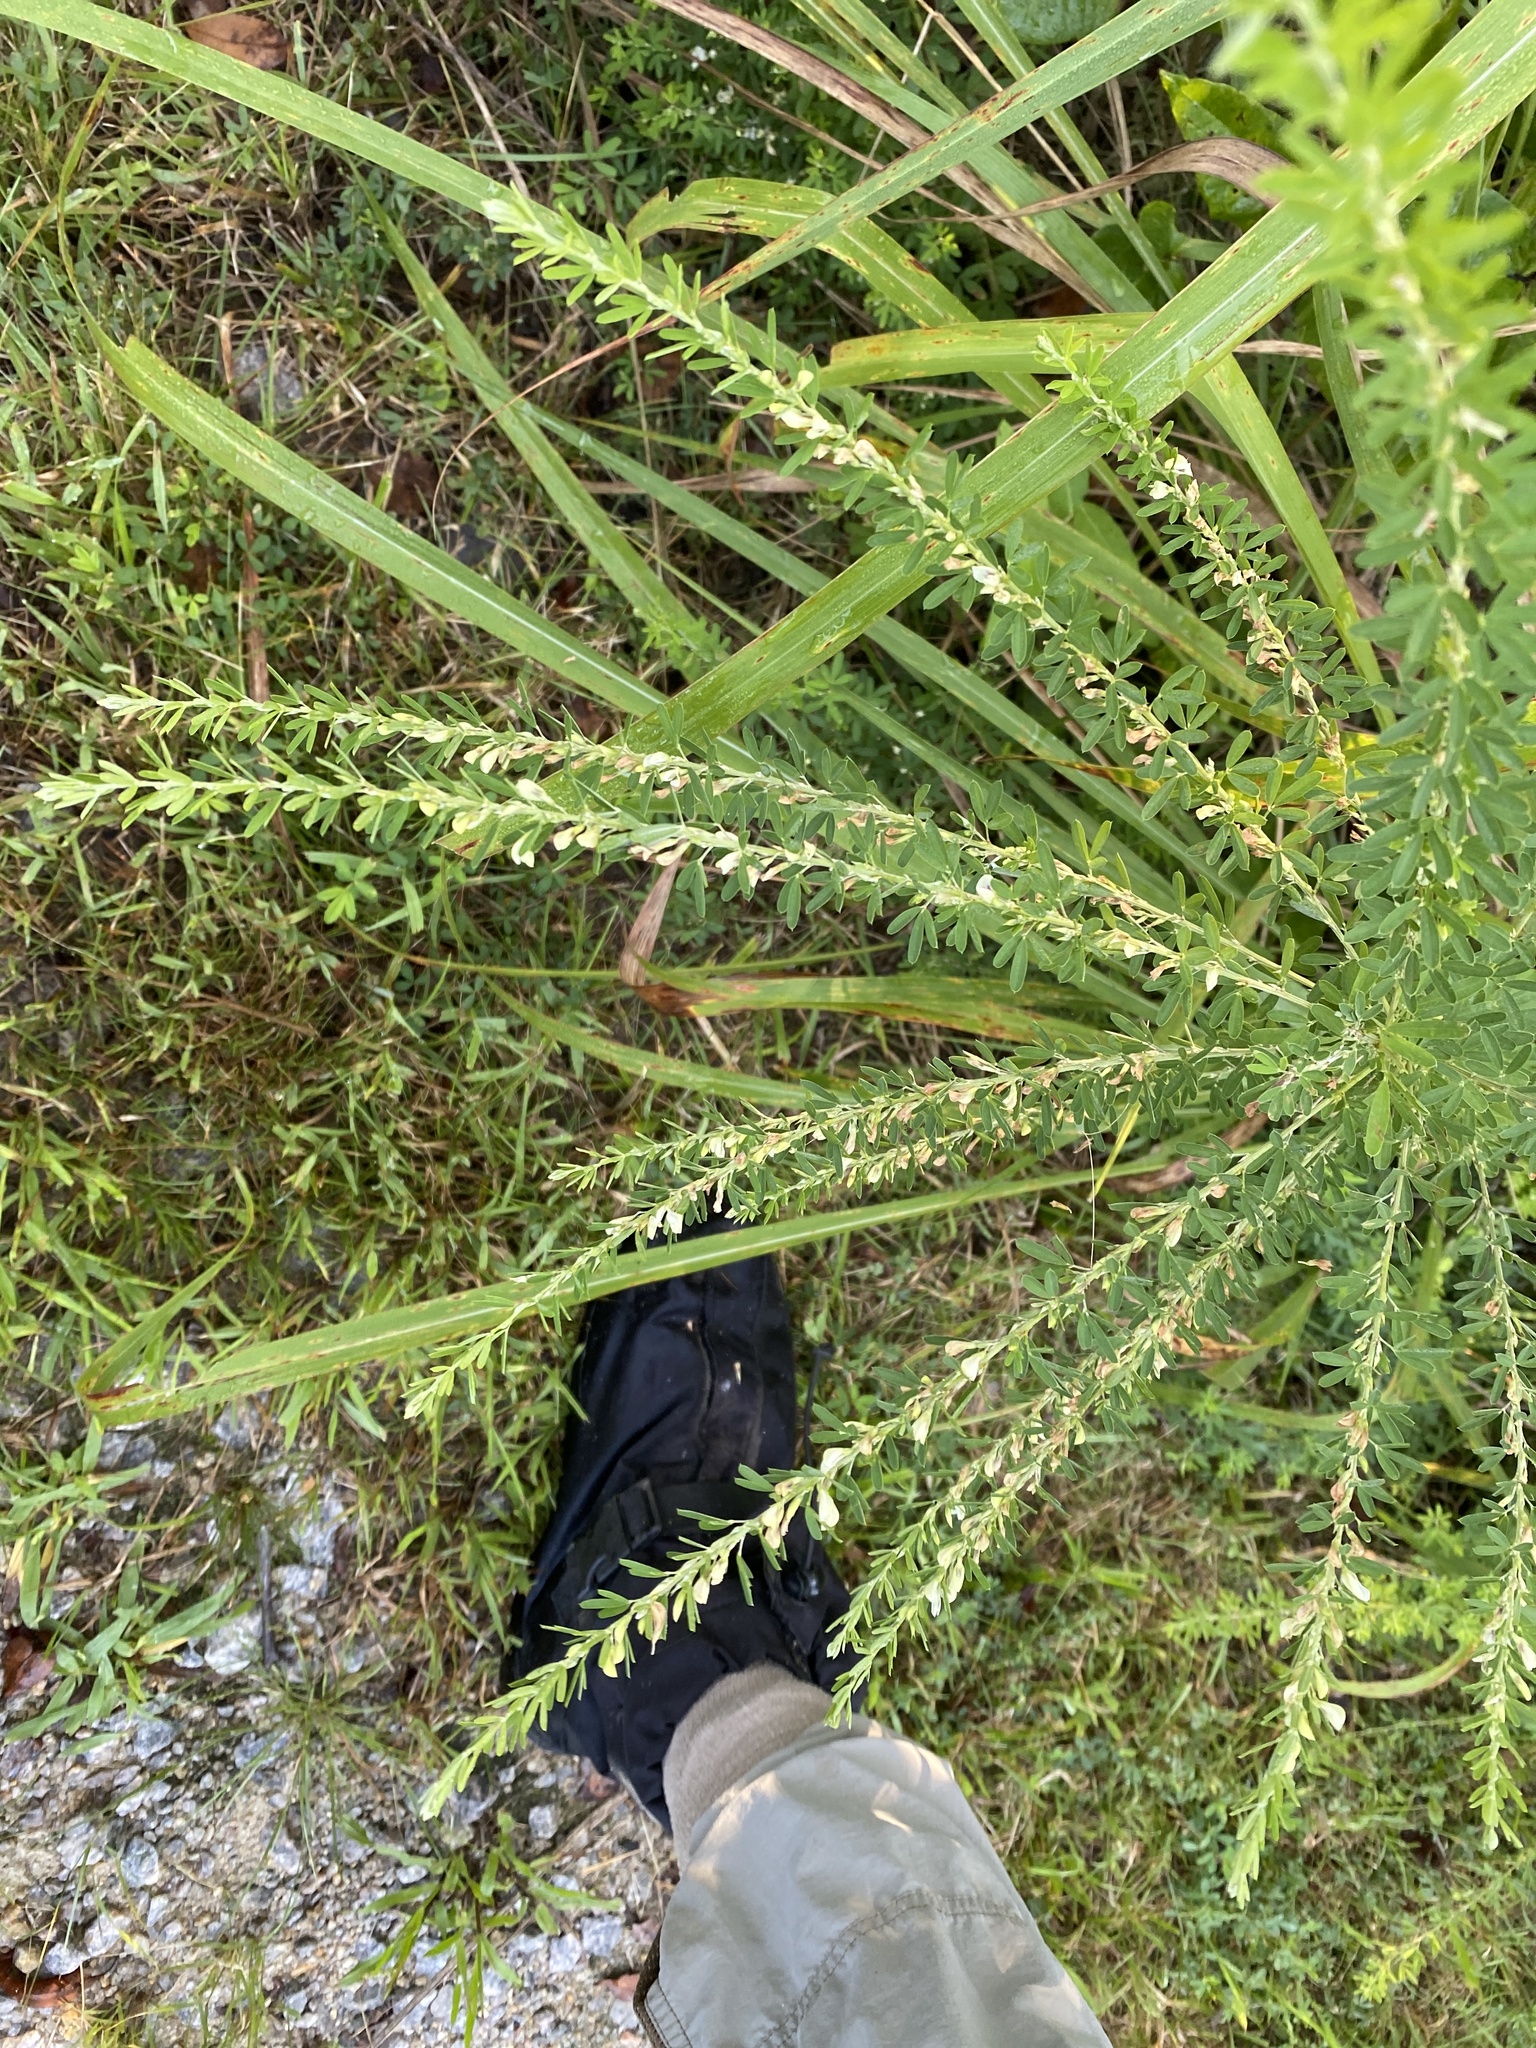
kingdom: Plantae
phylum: Tracheophyta
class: Magnoliopsida
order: Fabales
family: Fabaceae
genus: Lespedeza
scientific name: Lespedeza cuneata
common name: Chinese bush-clover
